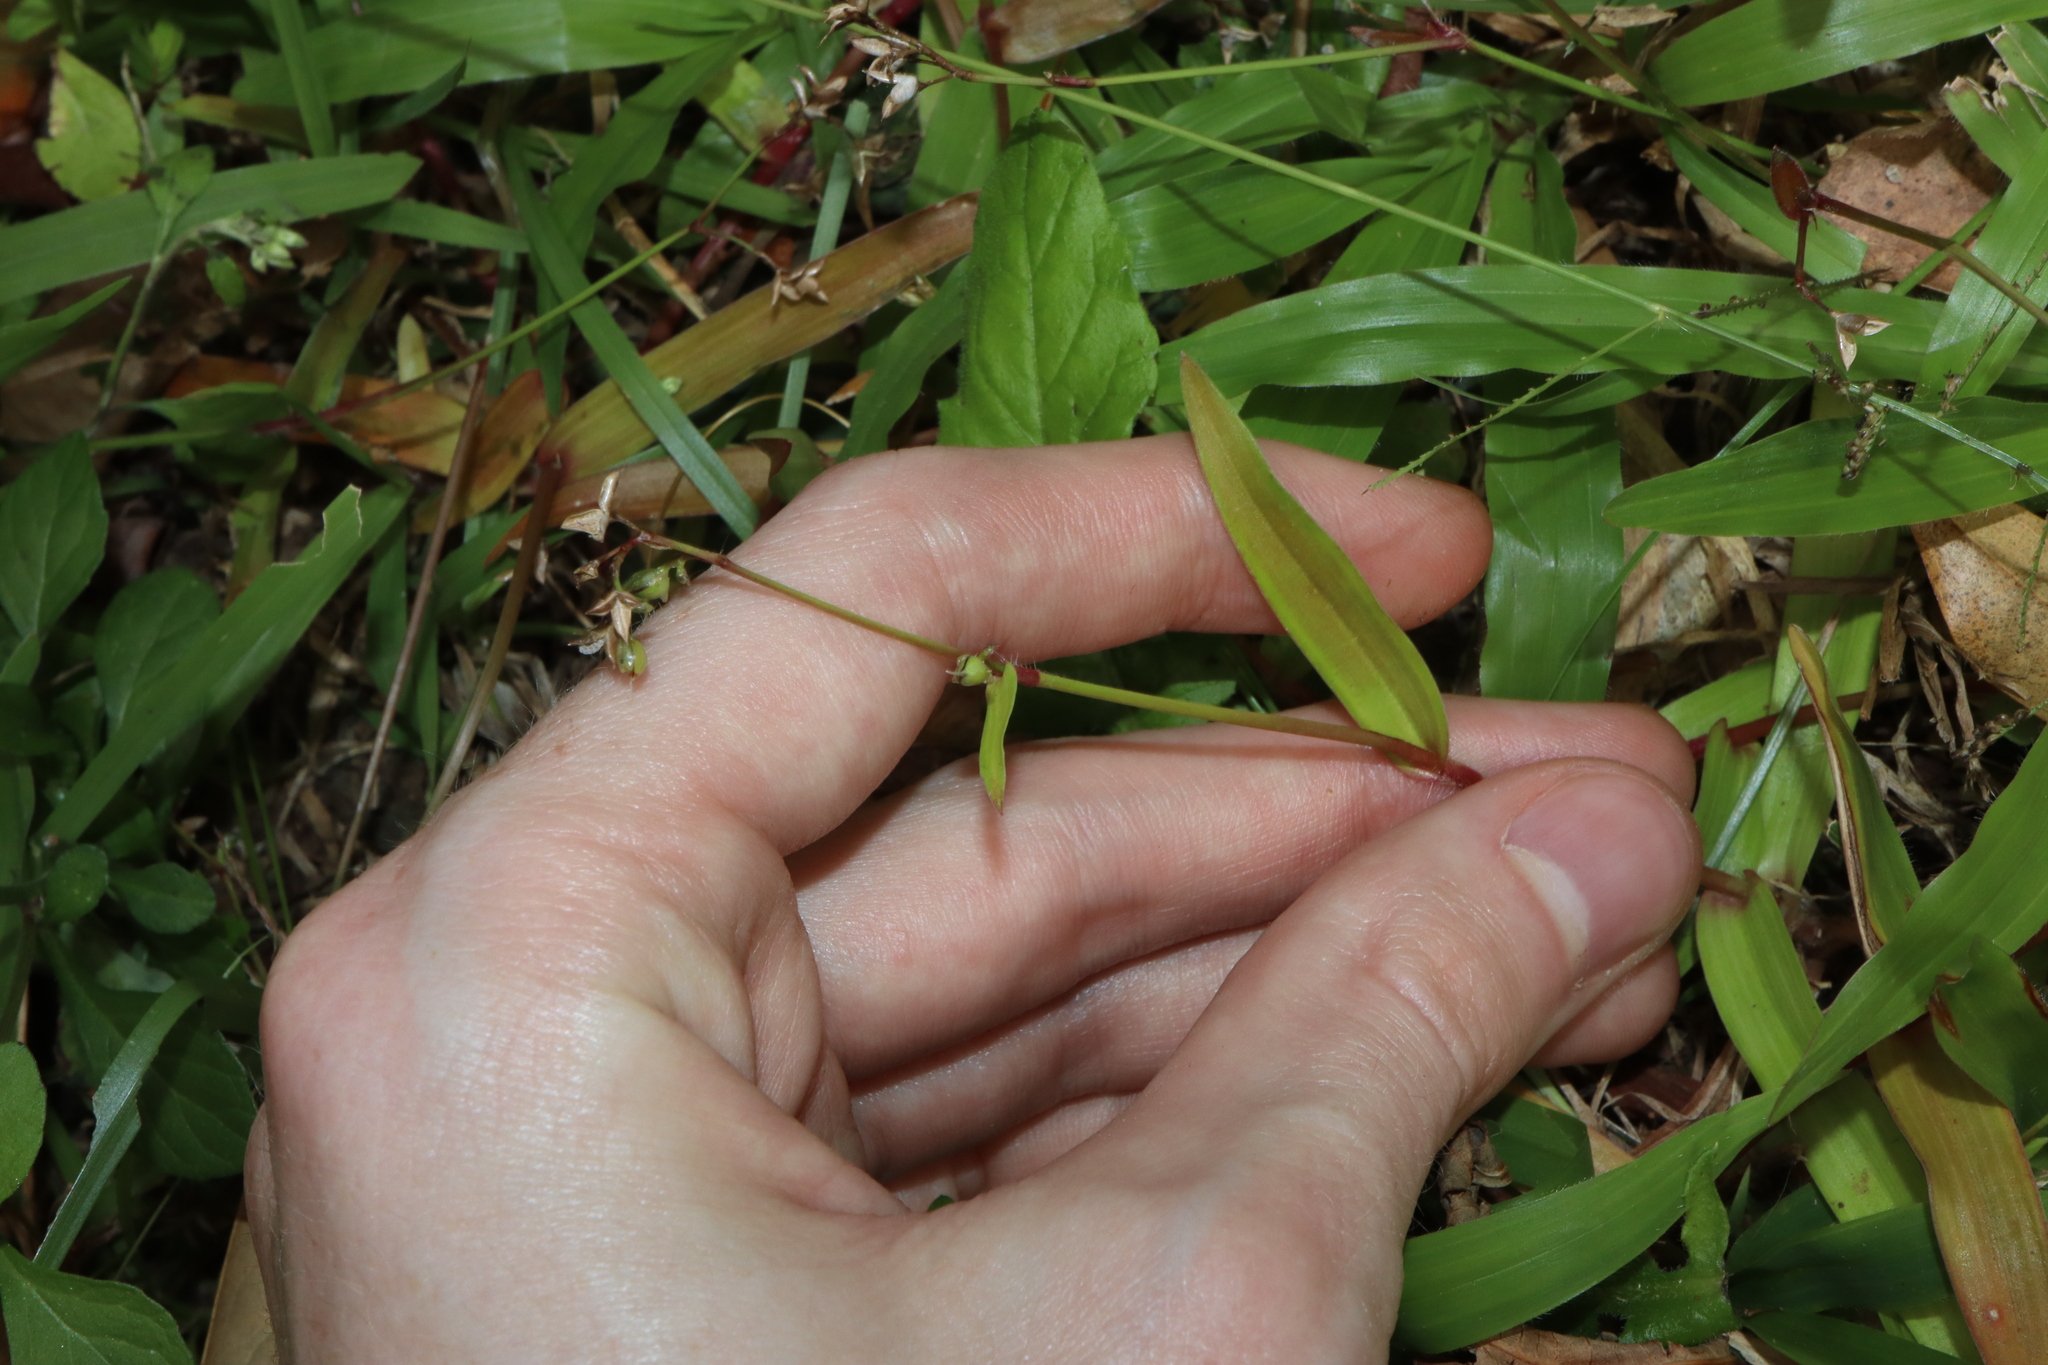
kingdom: Plantae
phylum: Tracheophyta
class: Liliopsida
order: Commelinales
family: Commelinaceae
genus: Murdannia
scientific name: Murdannia nudiflora
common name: Nakedstem dewflower
